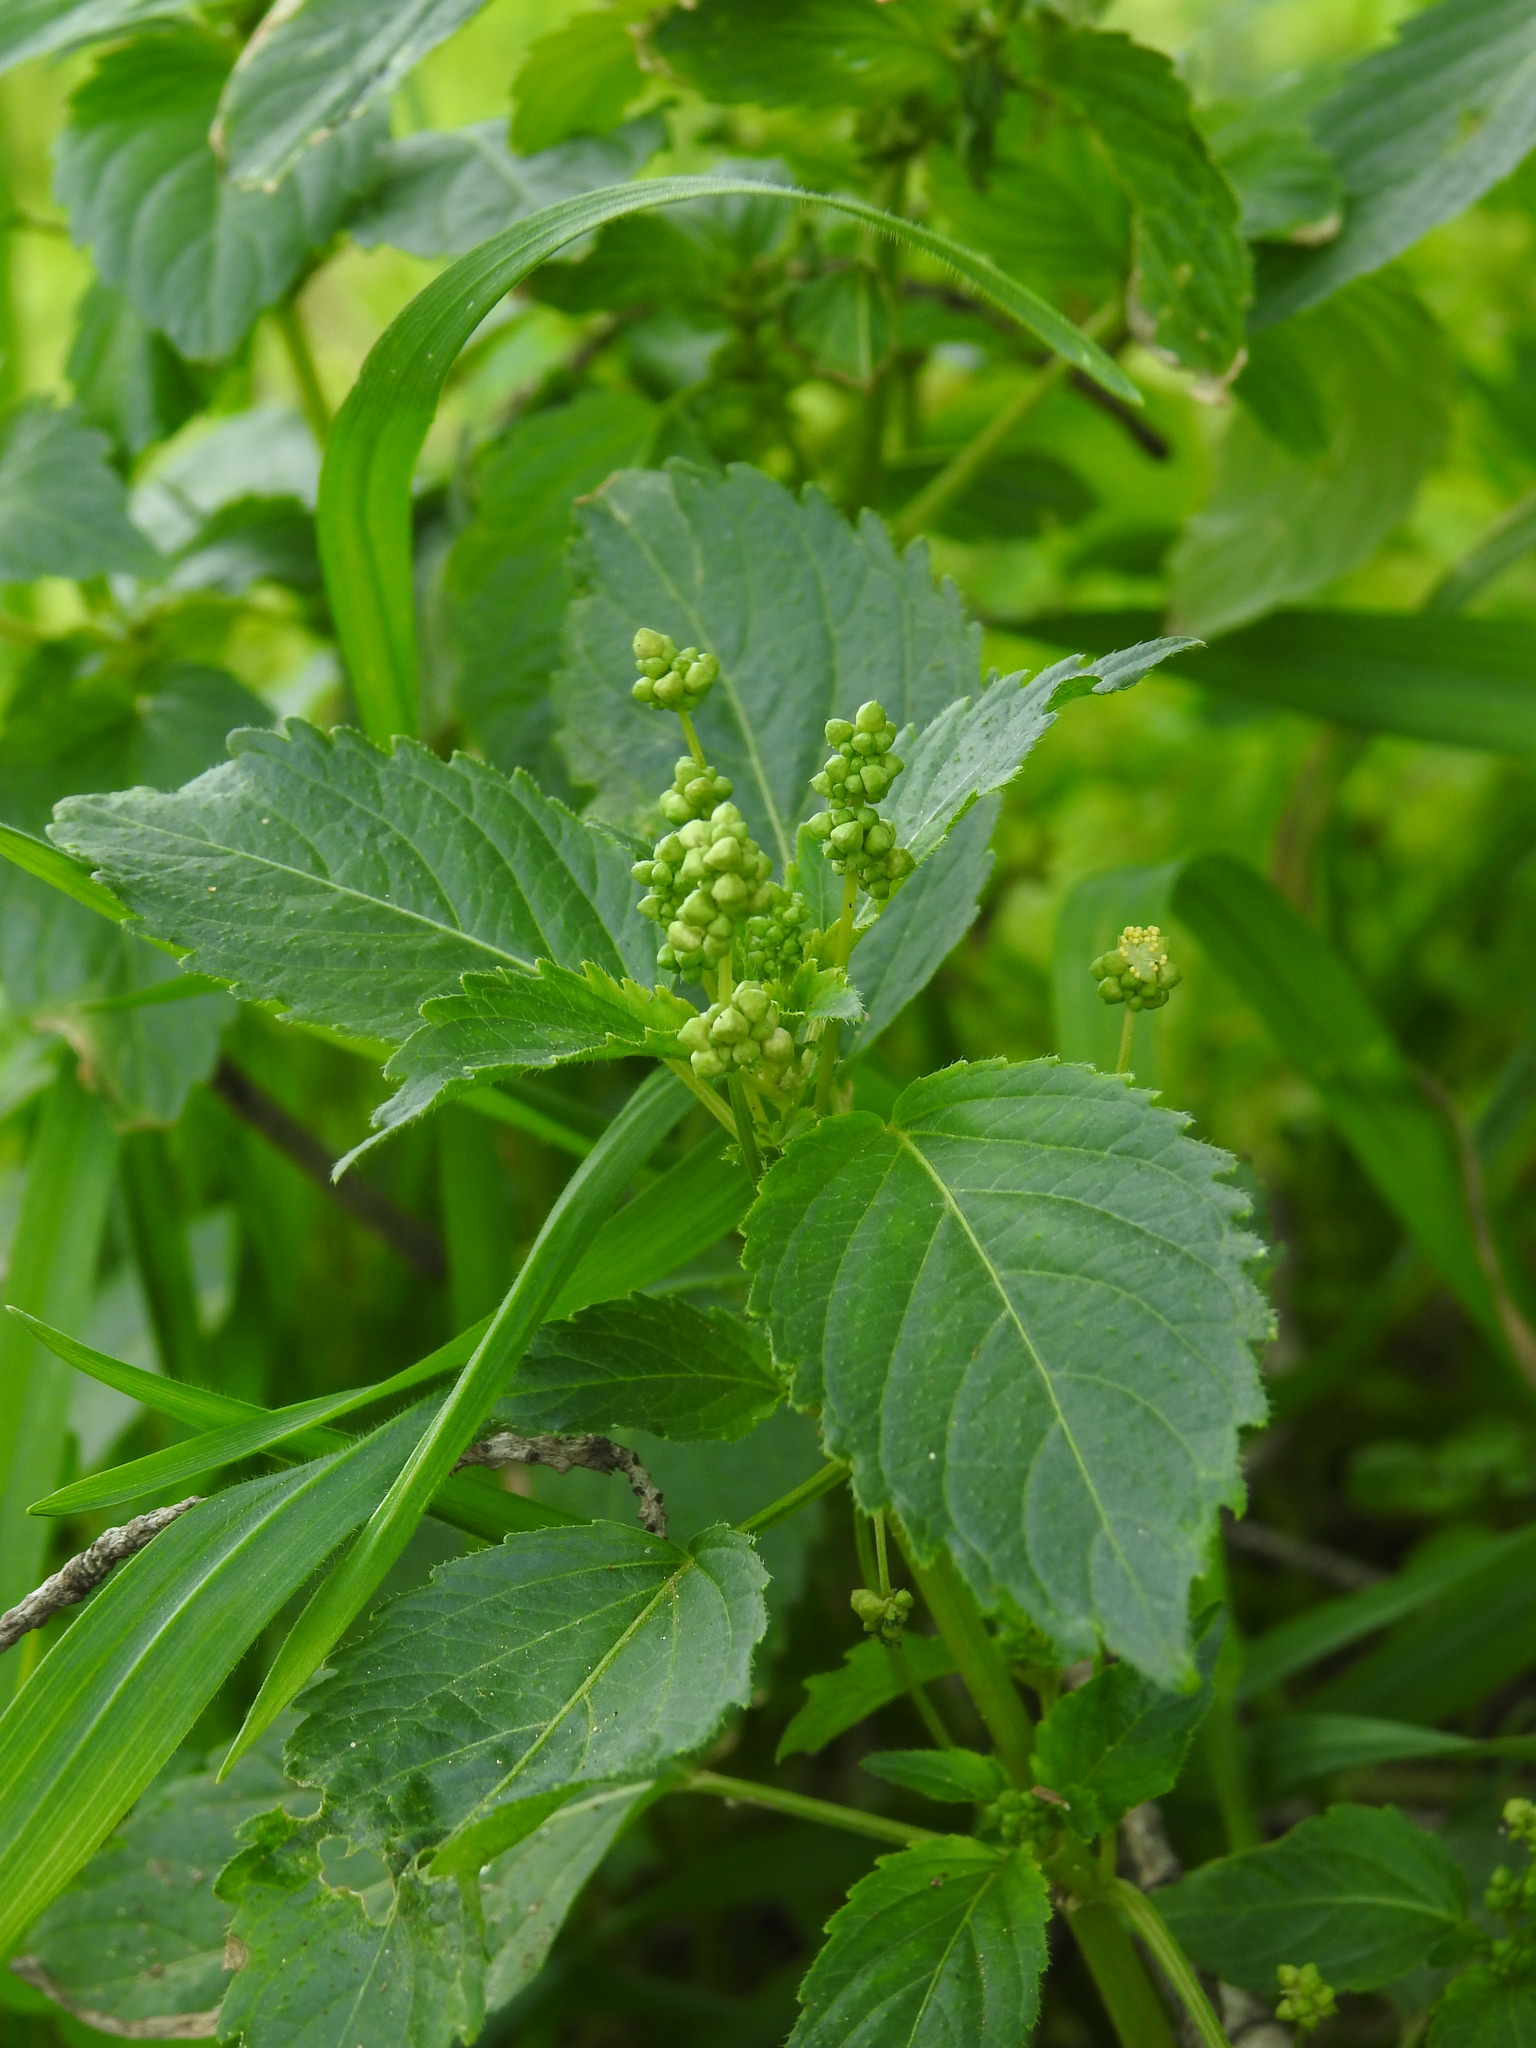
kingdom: Plantae
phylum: Tracheophyta
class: Magnoliopsida
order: Malpighiales
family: Euphorbiaceae
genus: Mercurialis
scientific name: Mercurialis annua
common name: Annual mercury
